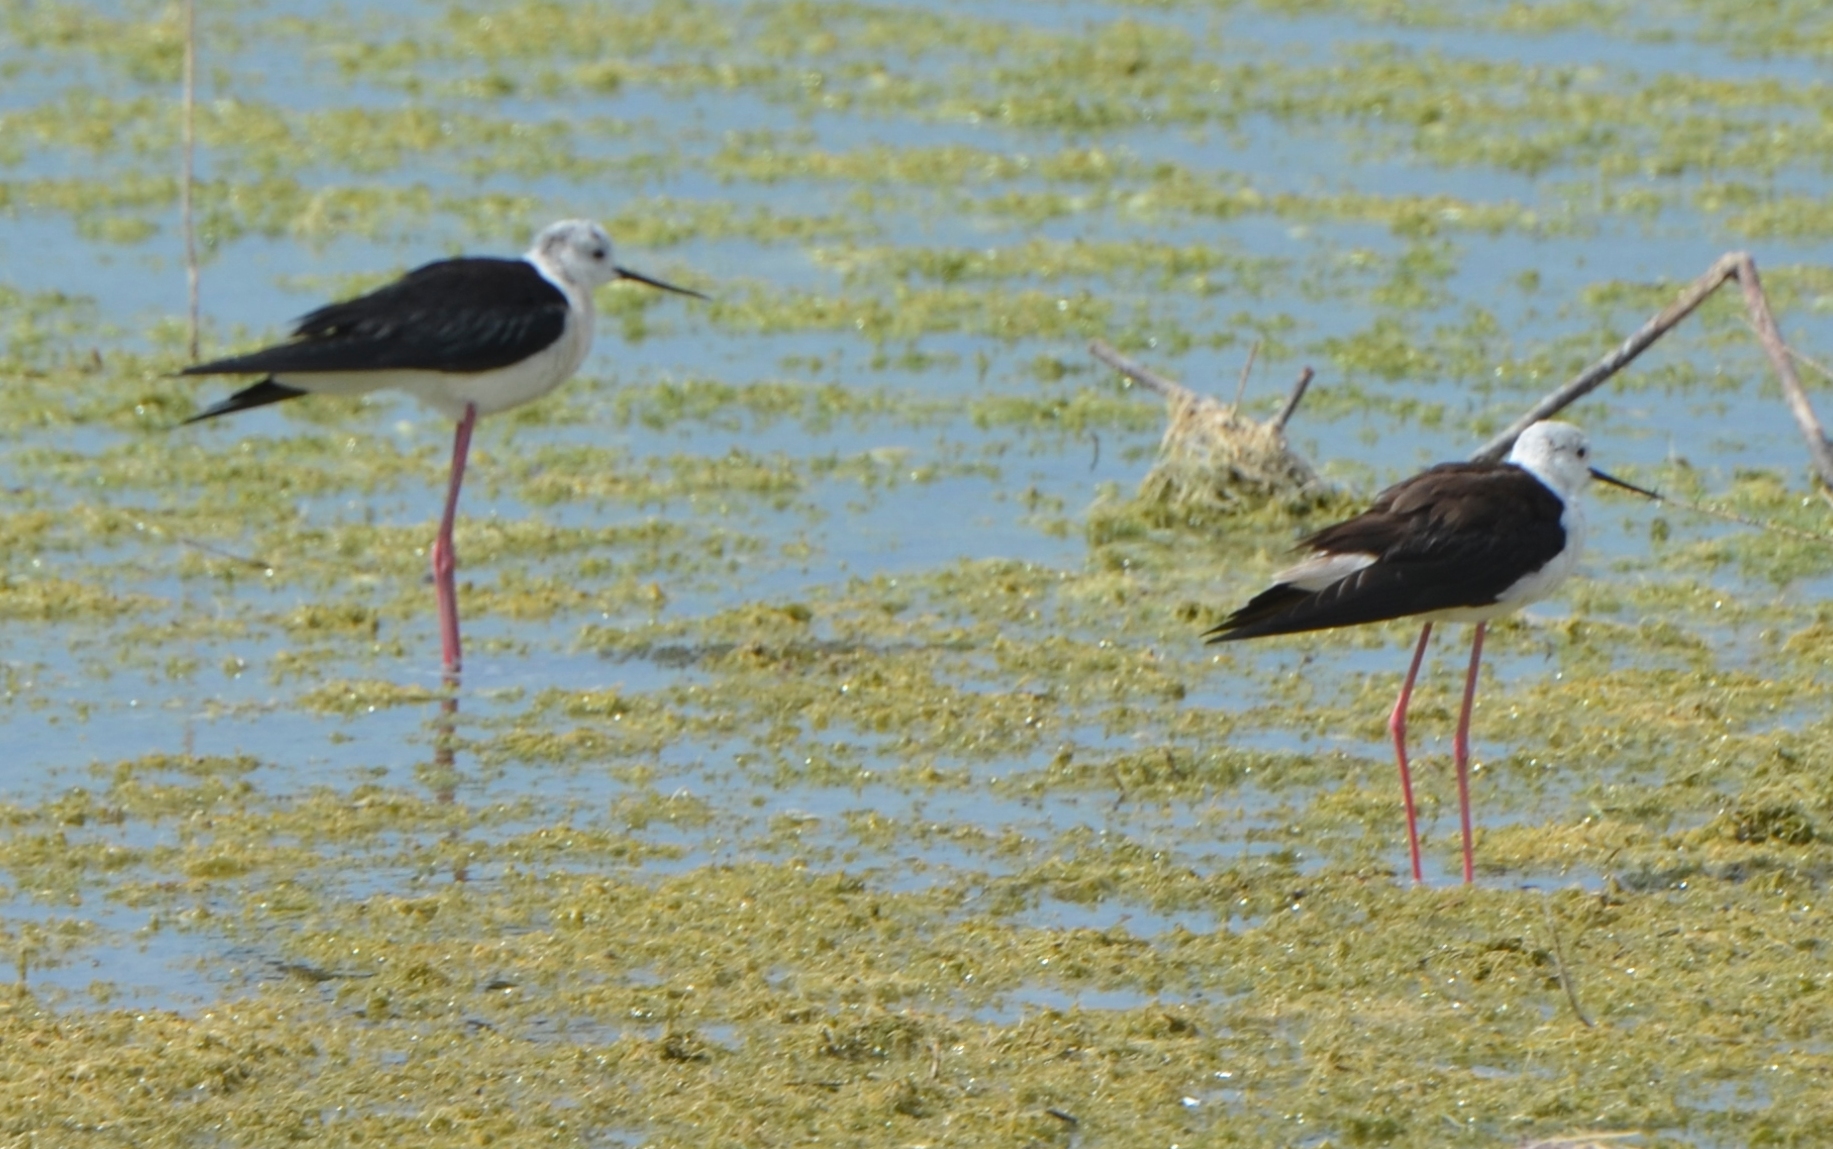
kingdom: Animalia
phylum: Chordata
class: Aves
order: Charadriiformes
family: Recurvirostridae
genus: Himantopus
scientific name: Himantopus himantopus
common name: Black-winged stilt
